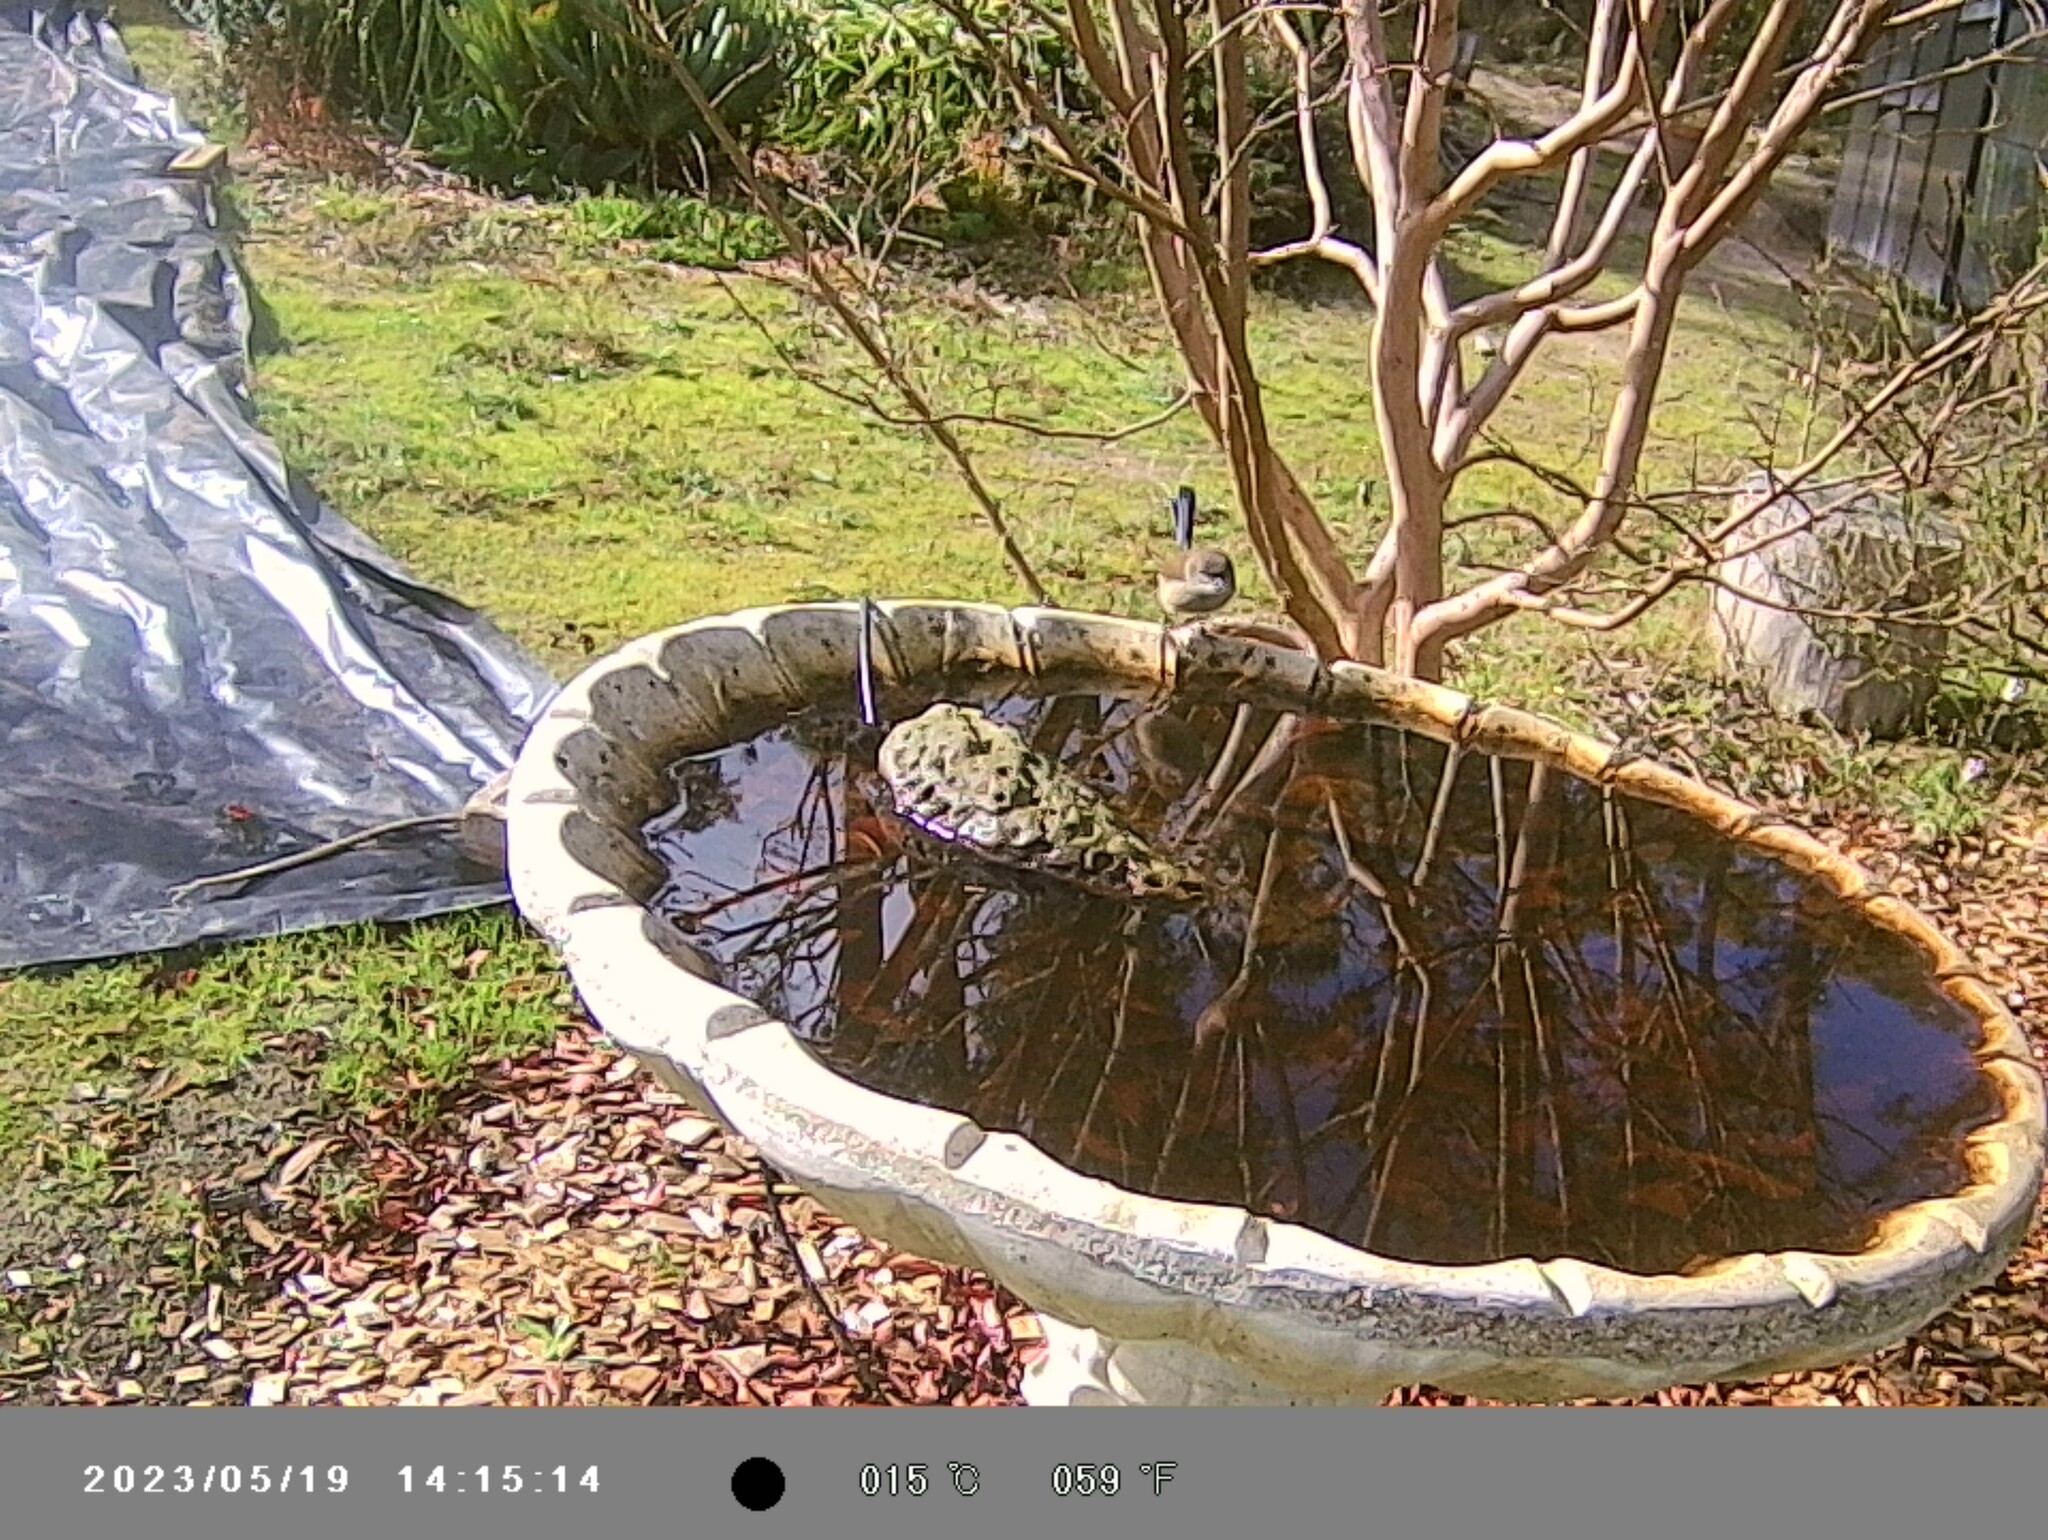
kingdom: Animalia
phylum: Chordata
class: Aves
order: Passeriformes
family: Maluridae
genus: Malurus
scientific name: Malurus cyaneus
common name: Superb fairywren
